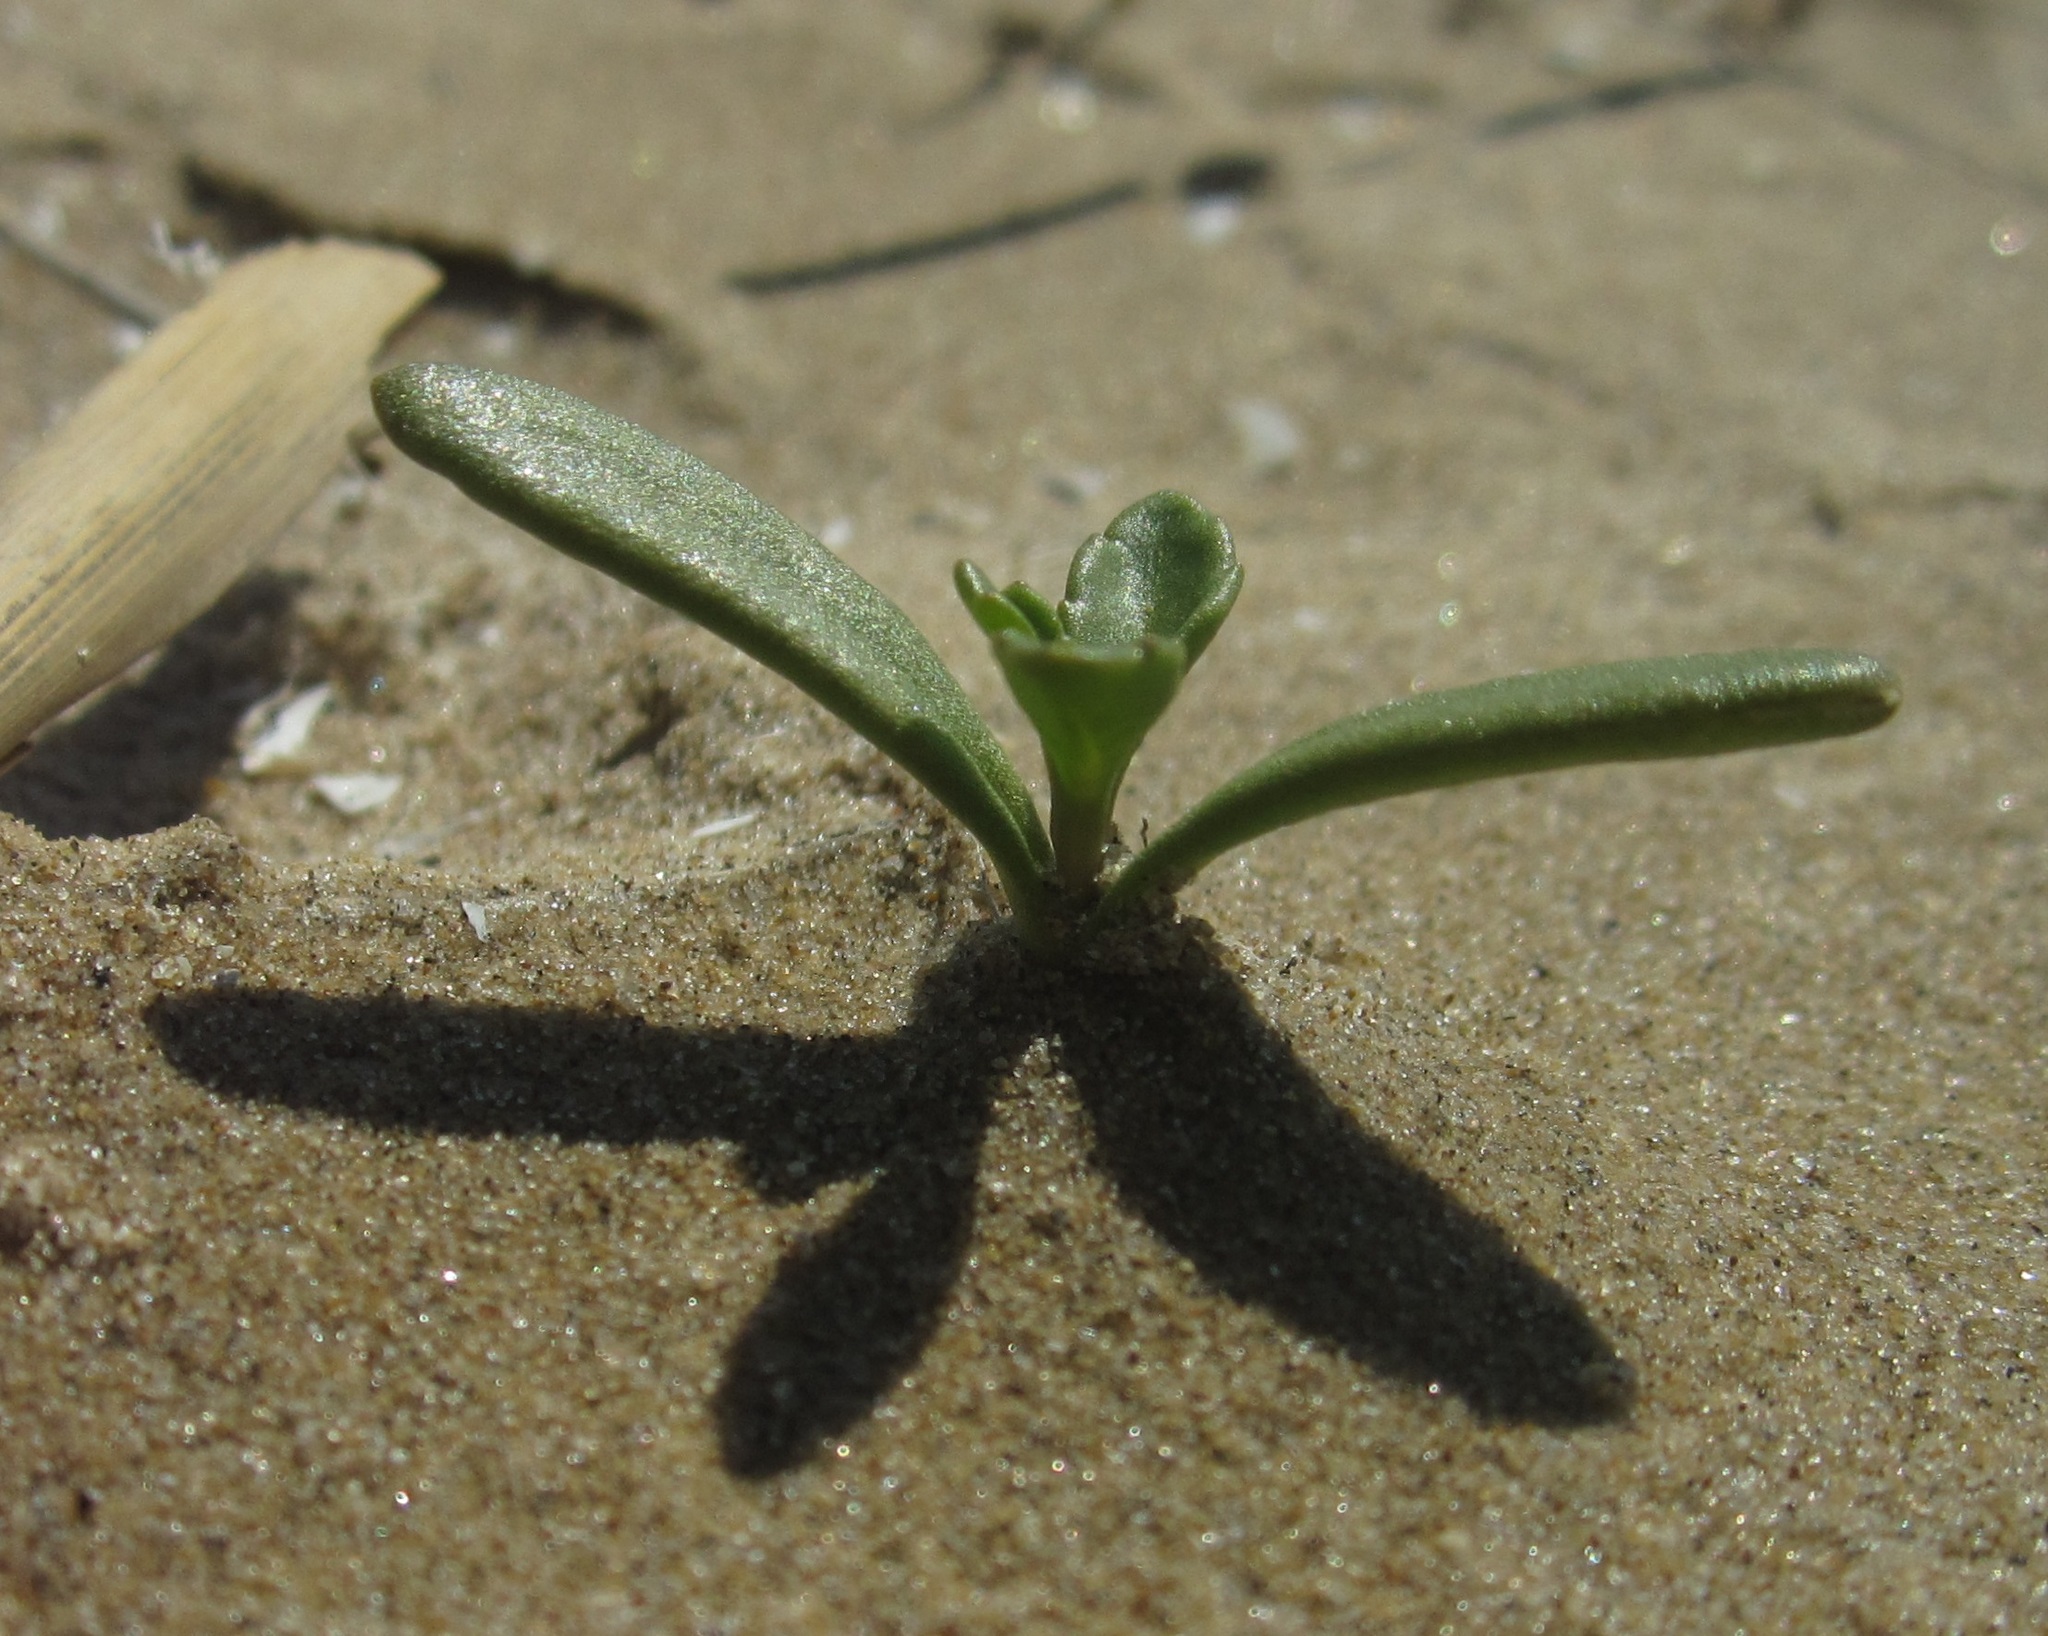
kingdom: Plantae
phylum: Tracheophyta
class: Magnoliopsida
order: Brassicales
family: Brassicaceae
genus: Cakile
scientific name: Cakile edentula
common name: American sea rocket
